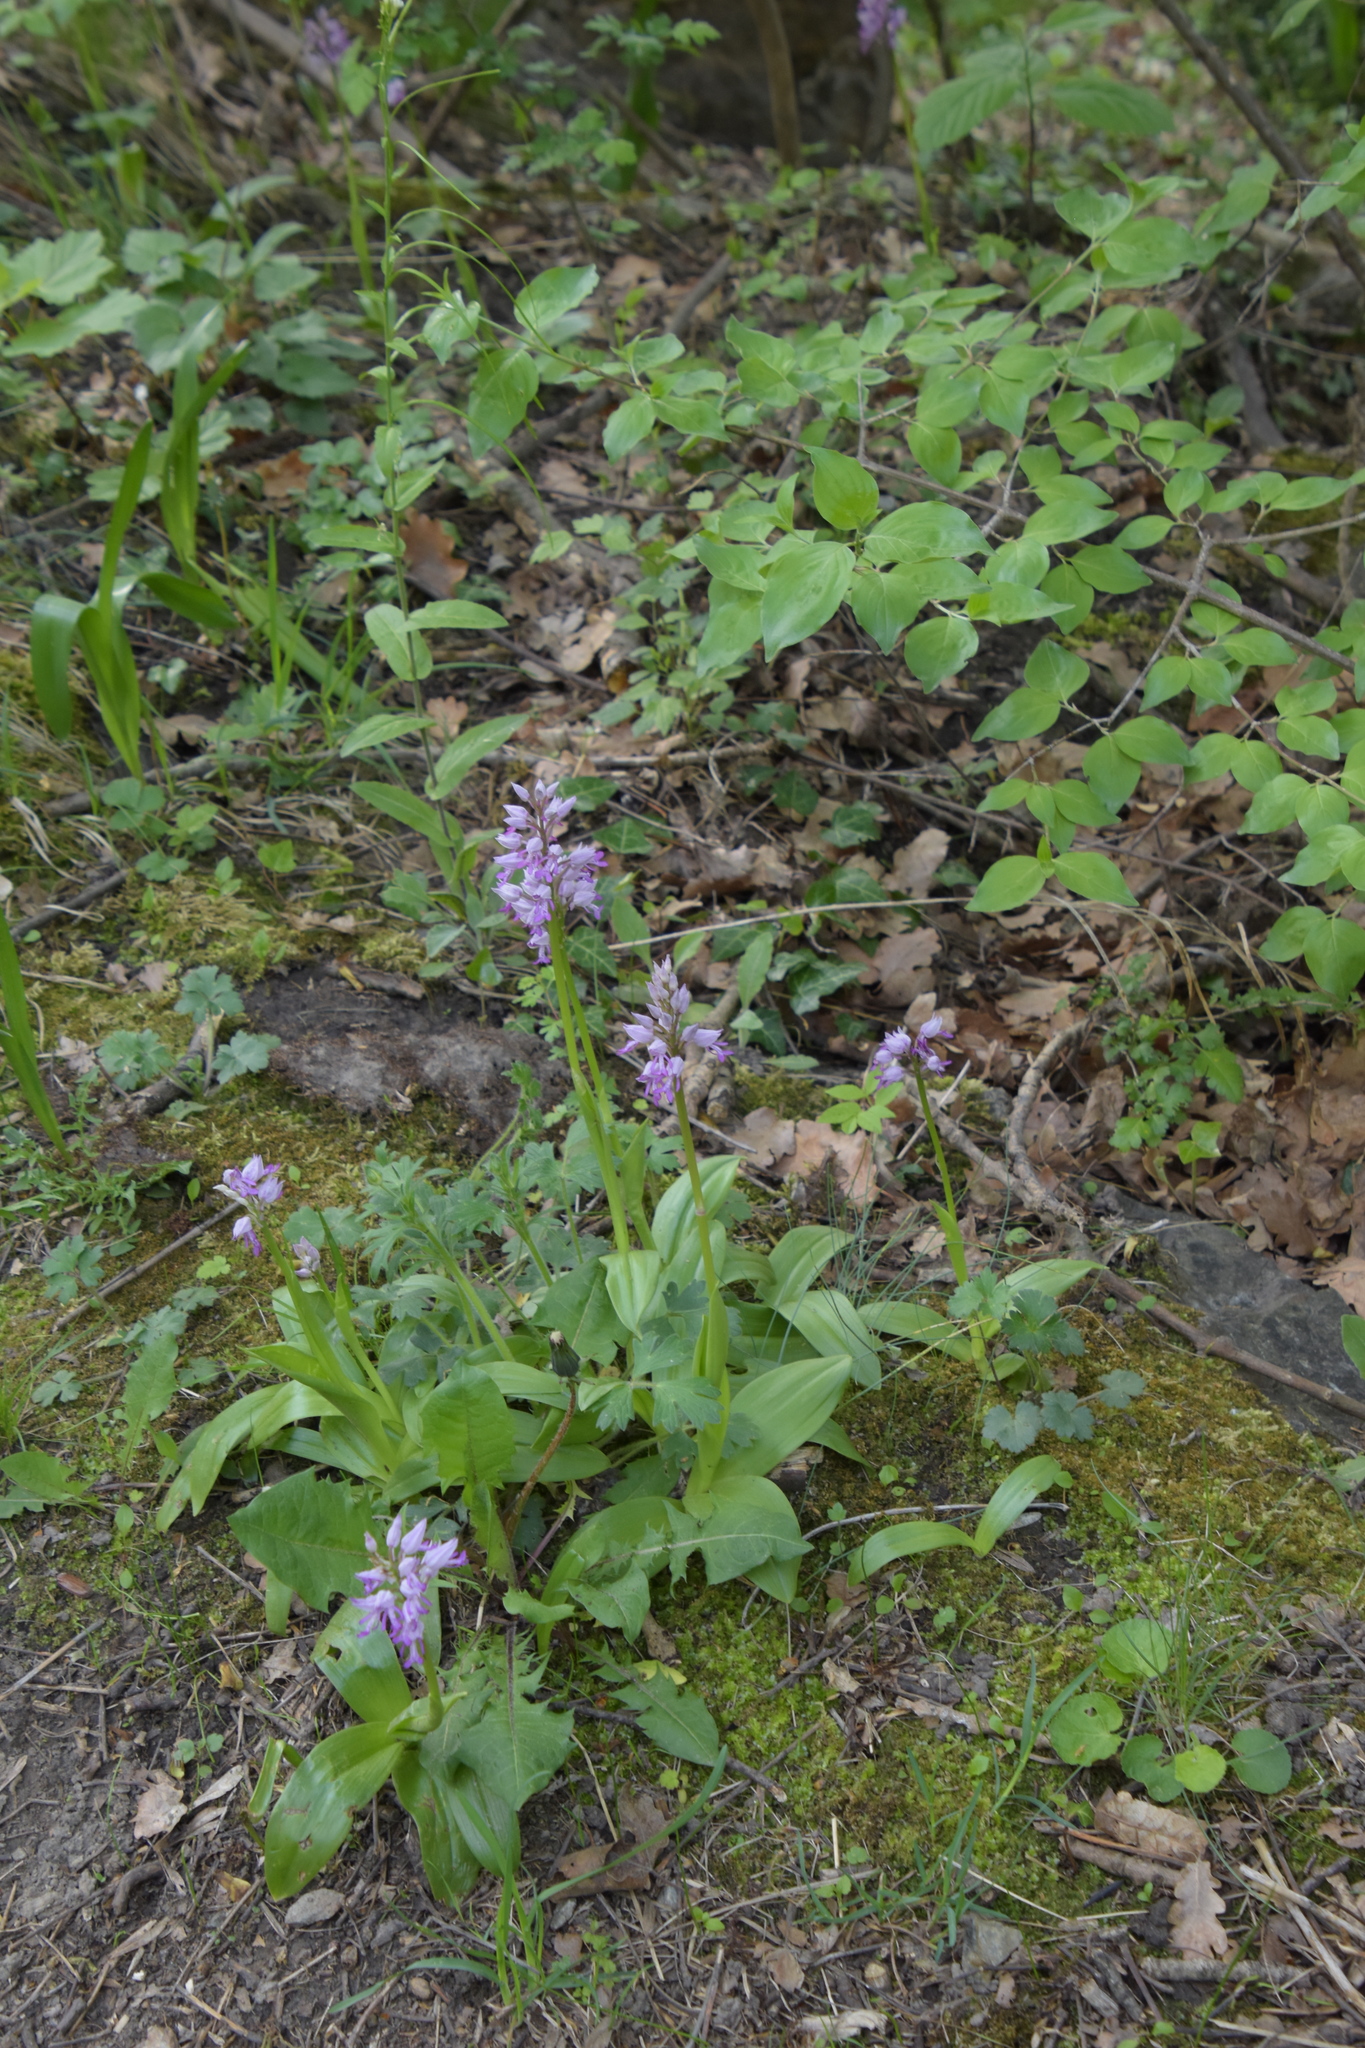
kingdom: Plantae
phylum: Tracheophyta
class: Liliopsida
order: Asparagales
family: Orchidaceae
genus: Orchis
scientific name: Orchis militaris
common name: Military orchid
